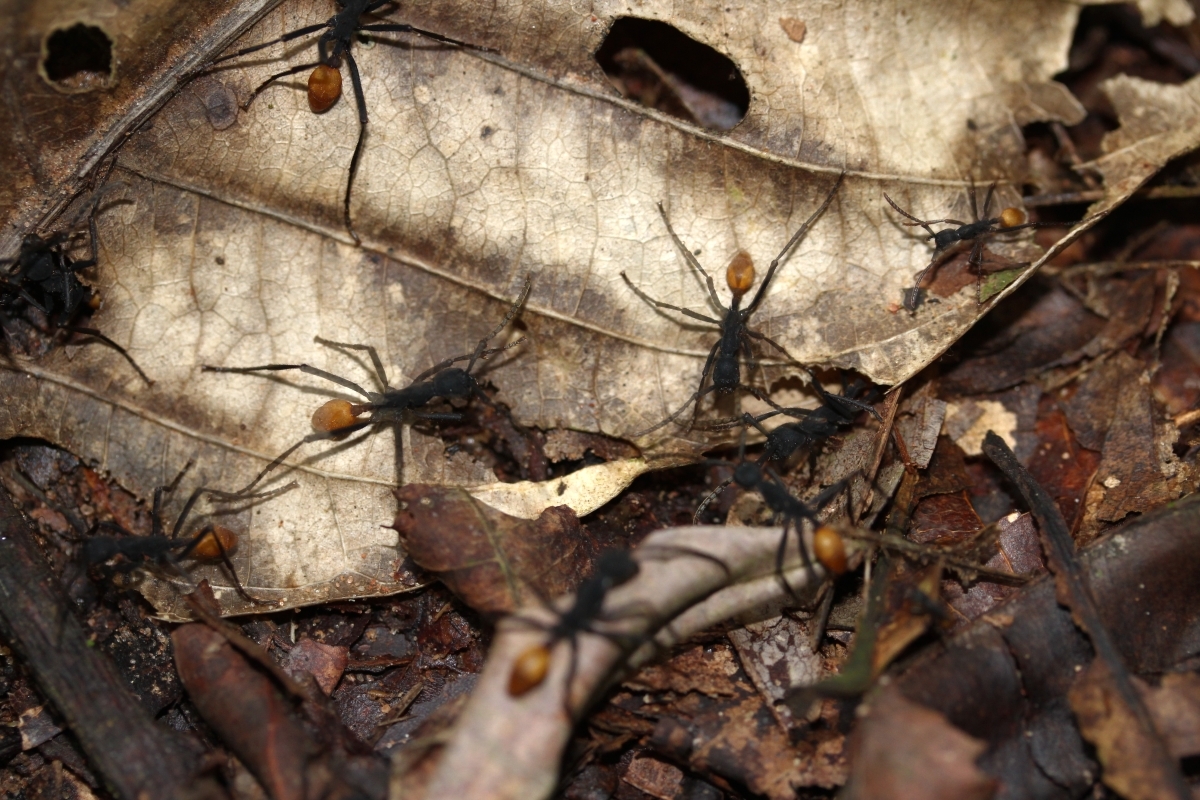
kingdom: Animalia
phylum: Arthropoda
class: Insecta
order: Hymenoptera
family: Formicidae
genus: Eciton
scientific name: Eciton rapax
